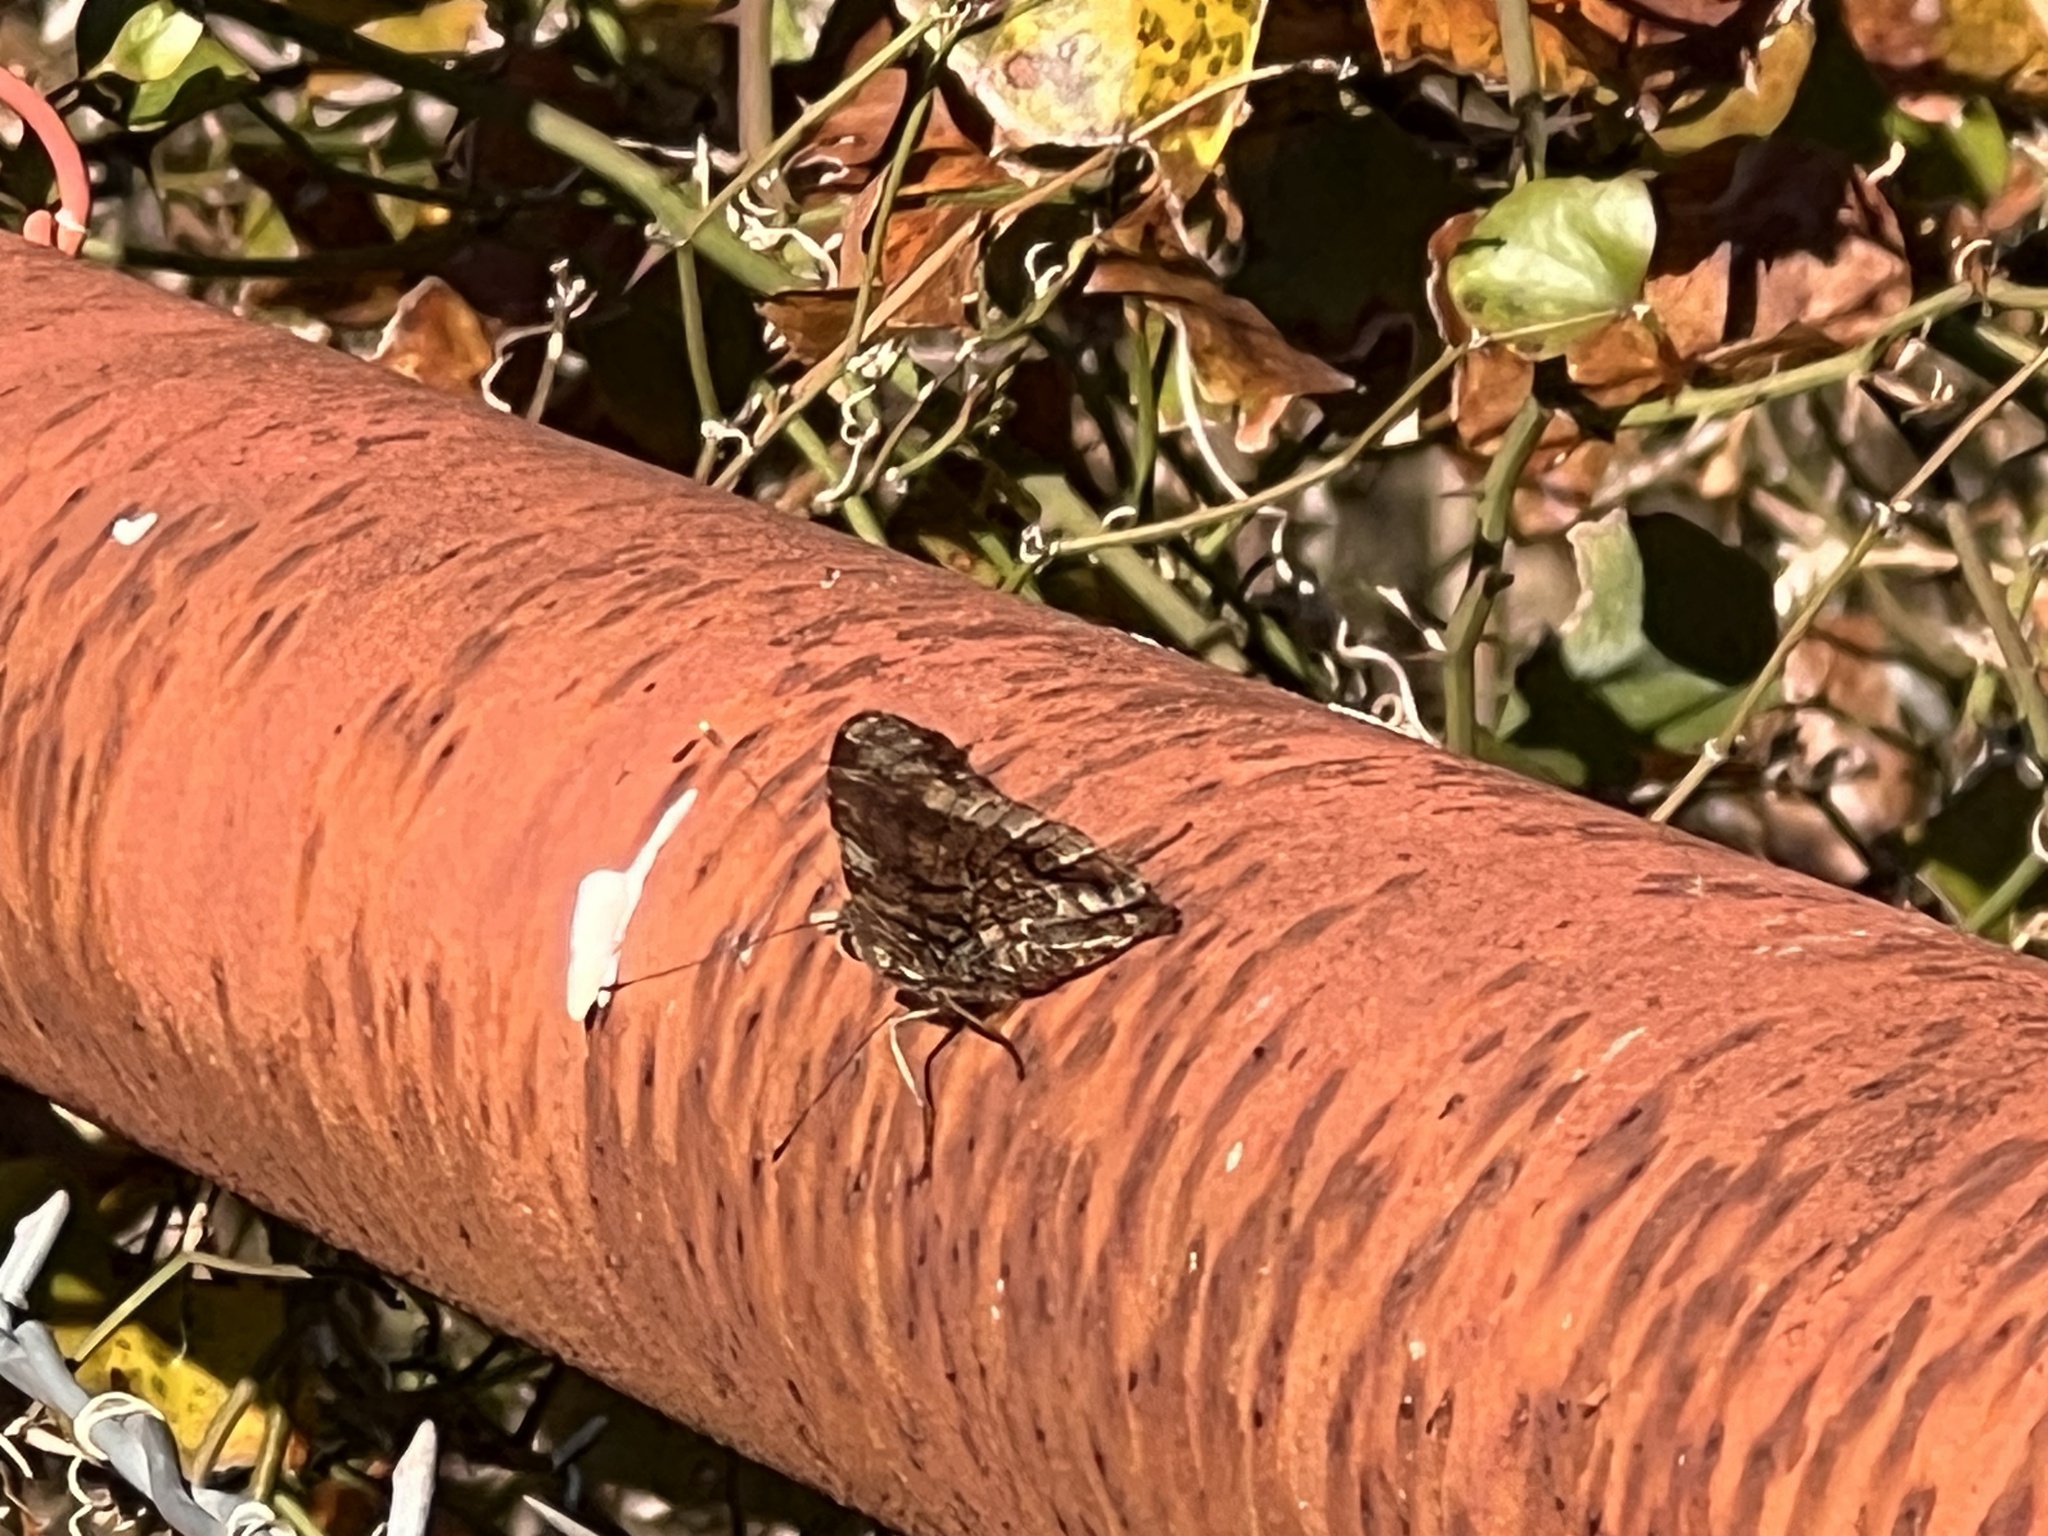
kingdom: Animalia
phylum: Arthropoda
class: Insecta
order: Lepidoptera
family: Nymphalidae
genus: Vanessa
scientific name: Vanessa atalanta
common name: Red admiral
